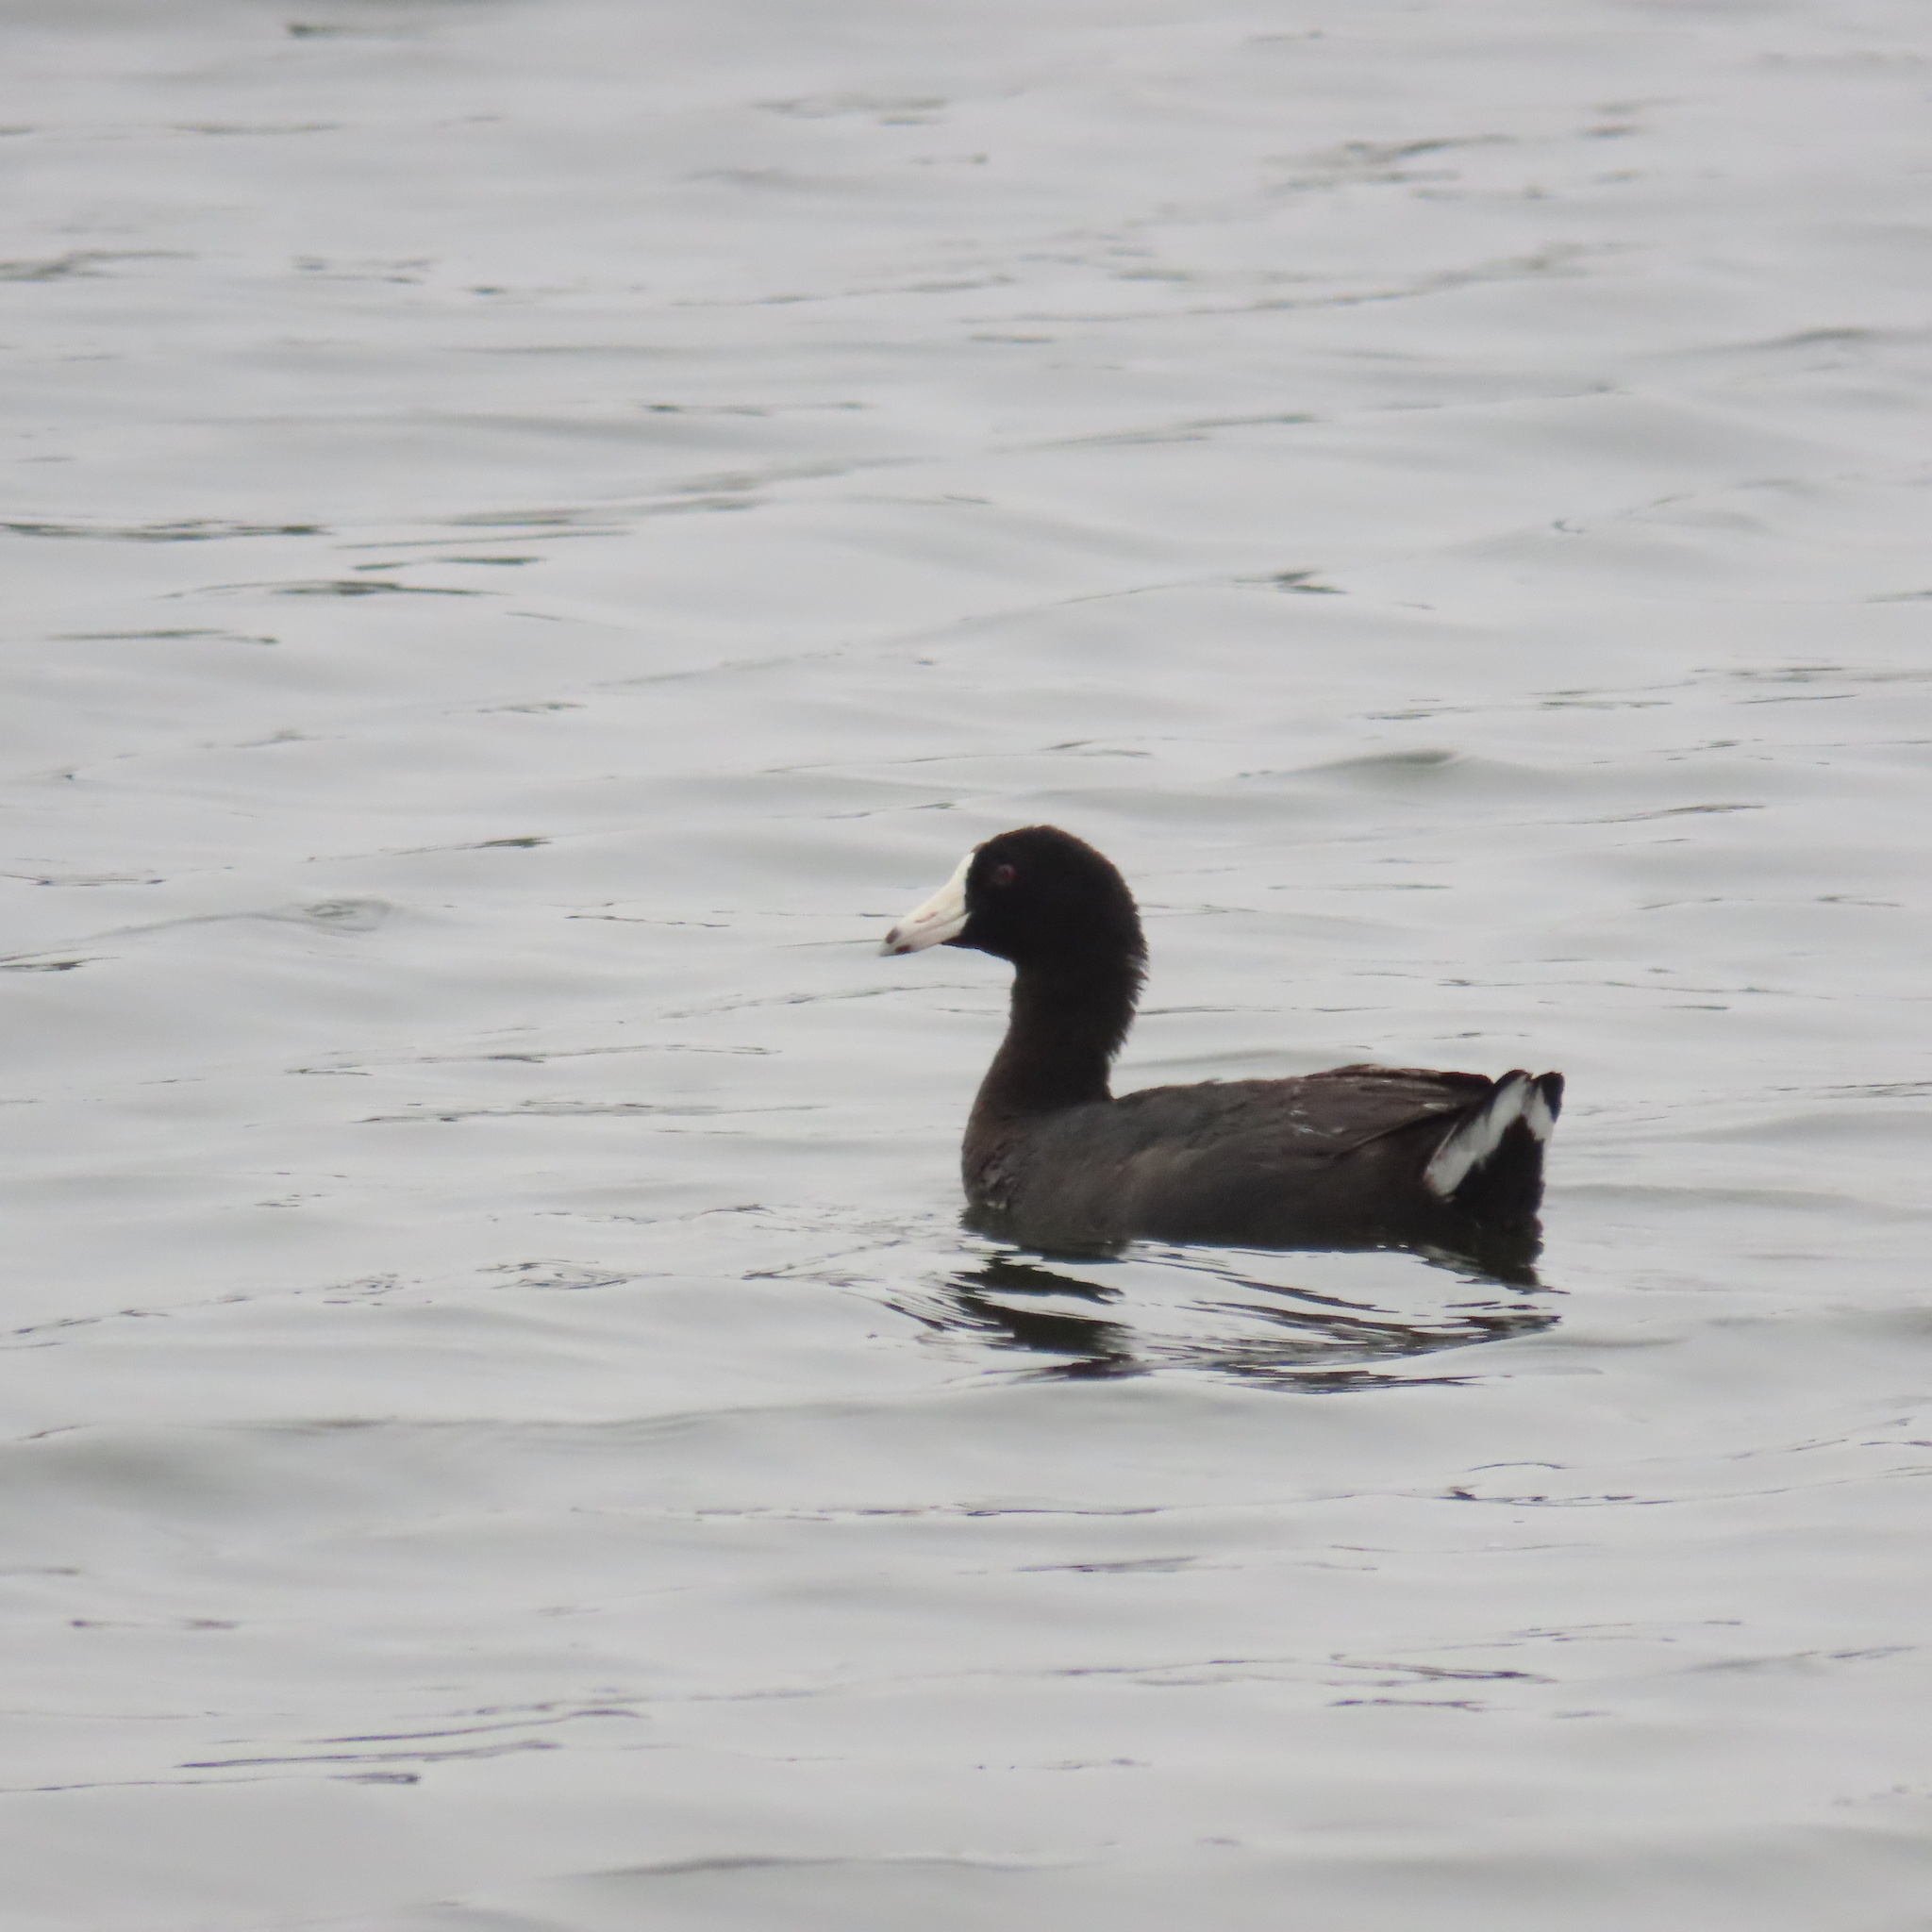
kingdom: Animalia
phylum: Chordata
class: Aves
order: Gruiformes
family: Rallidae
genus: Fulica
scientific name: Fulica americana
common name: American coot
